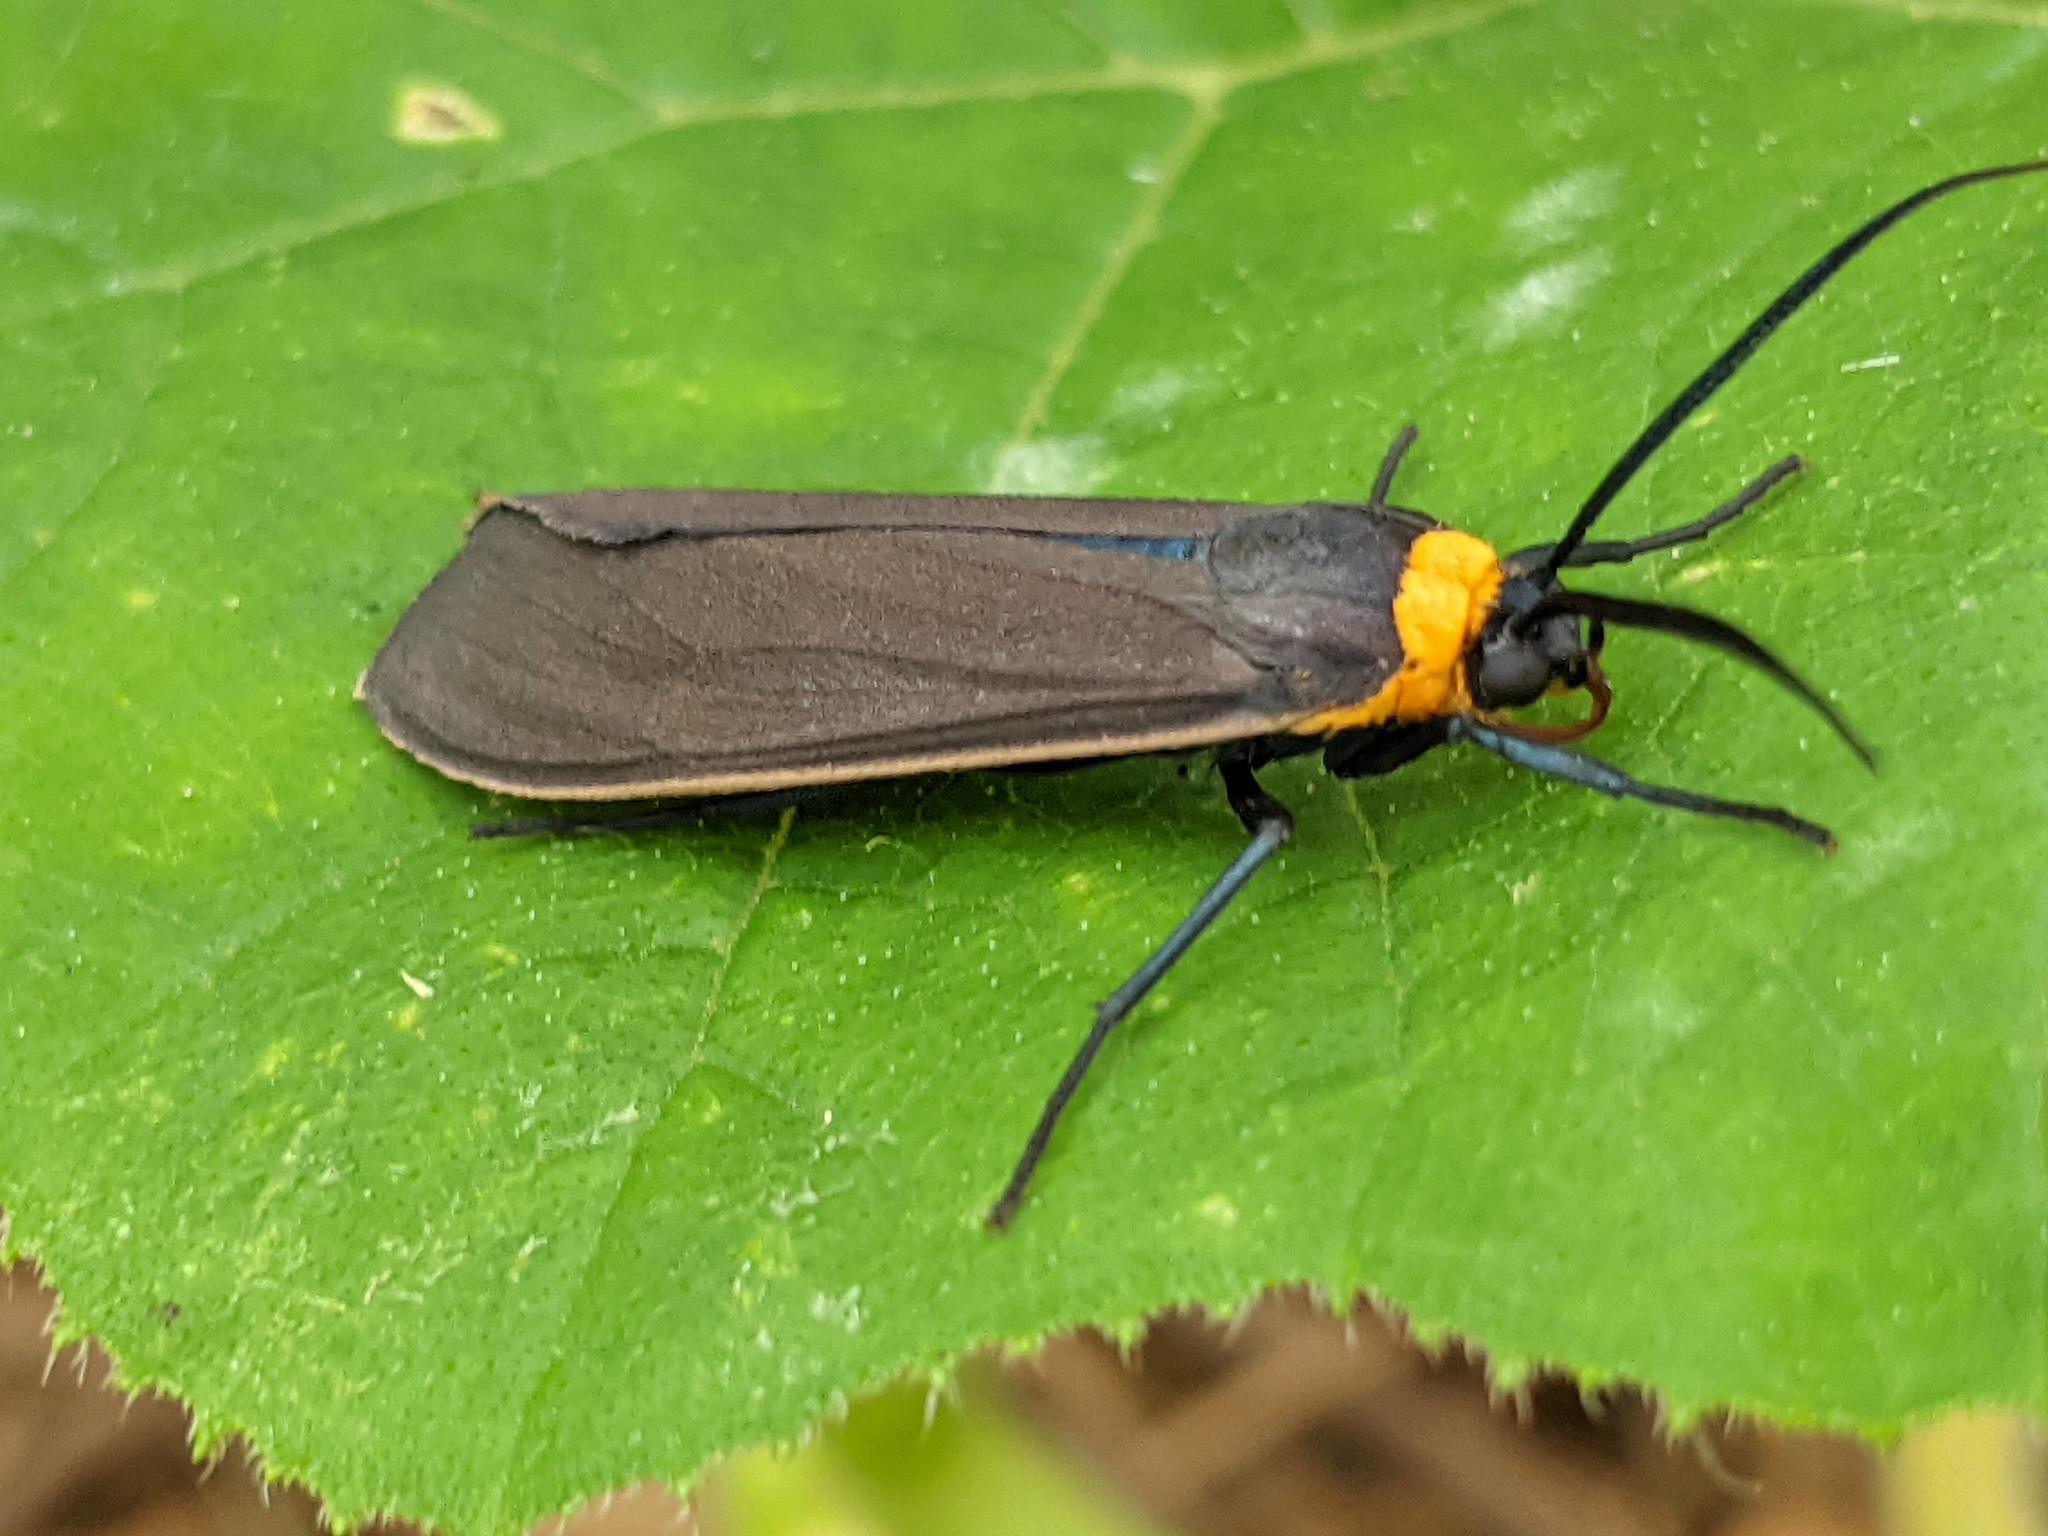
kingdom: Animalia
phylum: Arthropoda
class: Insecta
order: Lepidoptera
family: Erebidae
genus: Cisseps
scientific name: Cisseps fulvicollis
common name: Yellow-collared scape moth
